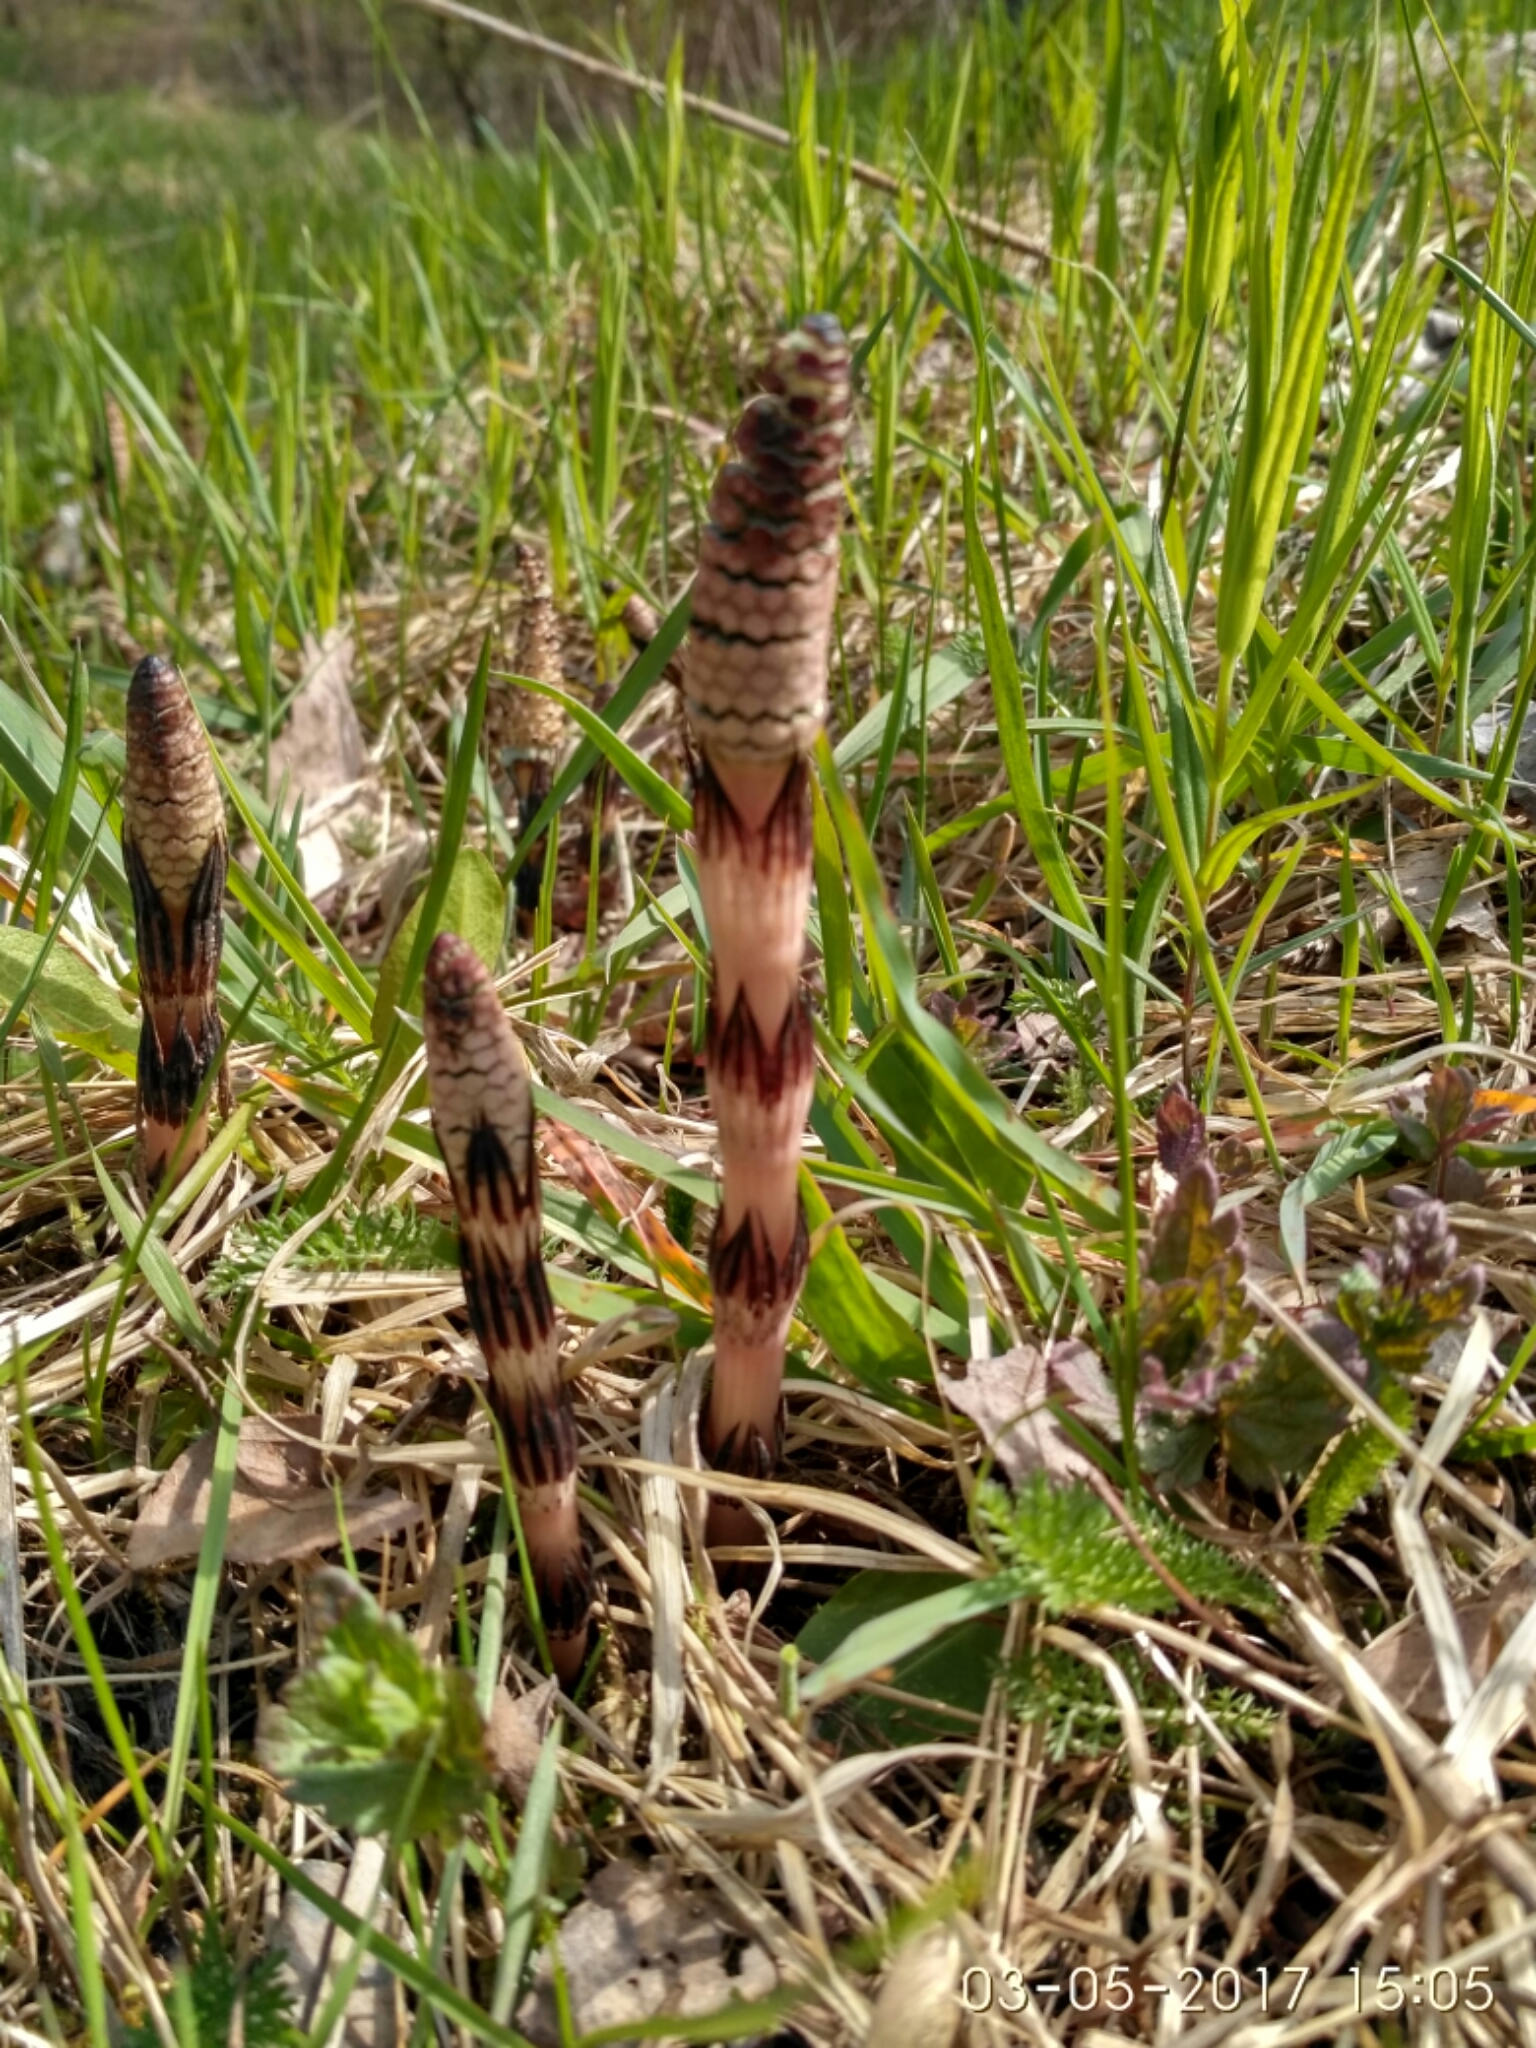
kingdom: Plantae
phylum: Tracheophyta
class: Polypodiopsida
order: Equisetales
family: Equisetaceae
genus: Equisetum
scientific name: Equisetum arvense
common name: Field horsetail
